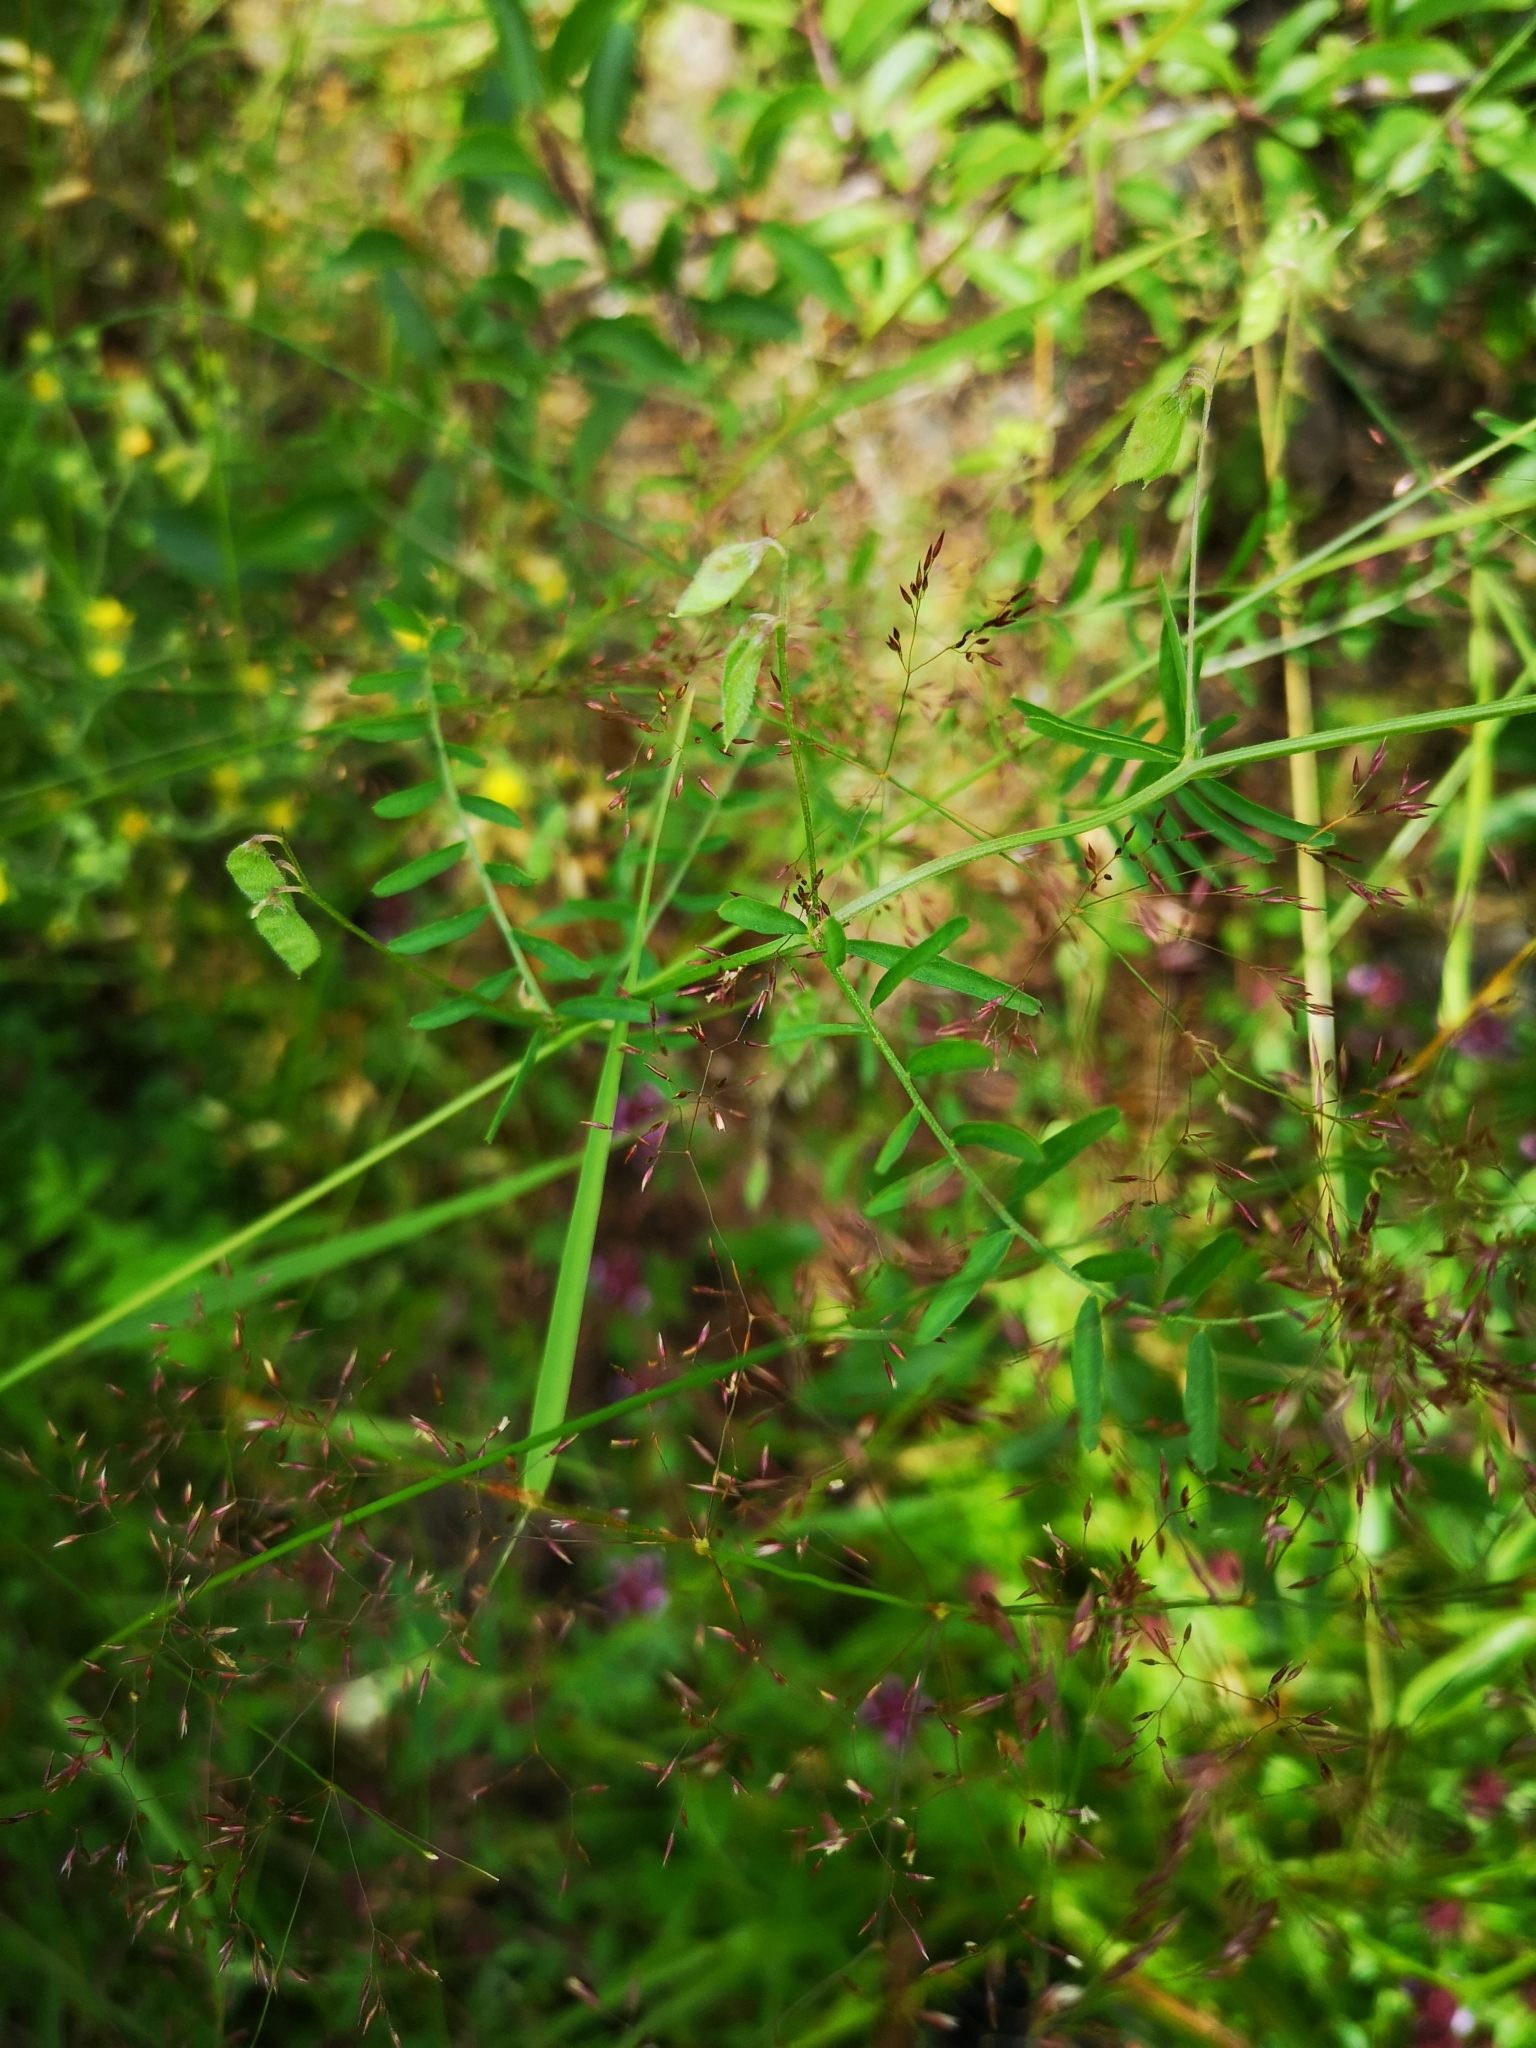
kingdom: Plantae
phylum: Tracheophyta
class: Magnoliopsida
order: Fabales
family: Fabaceae
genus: Vicia
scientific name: Vicia hirsuta
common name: Tiny vetch
